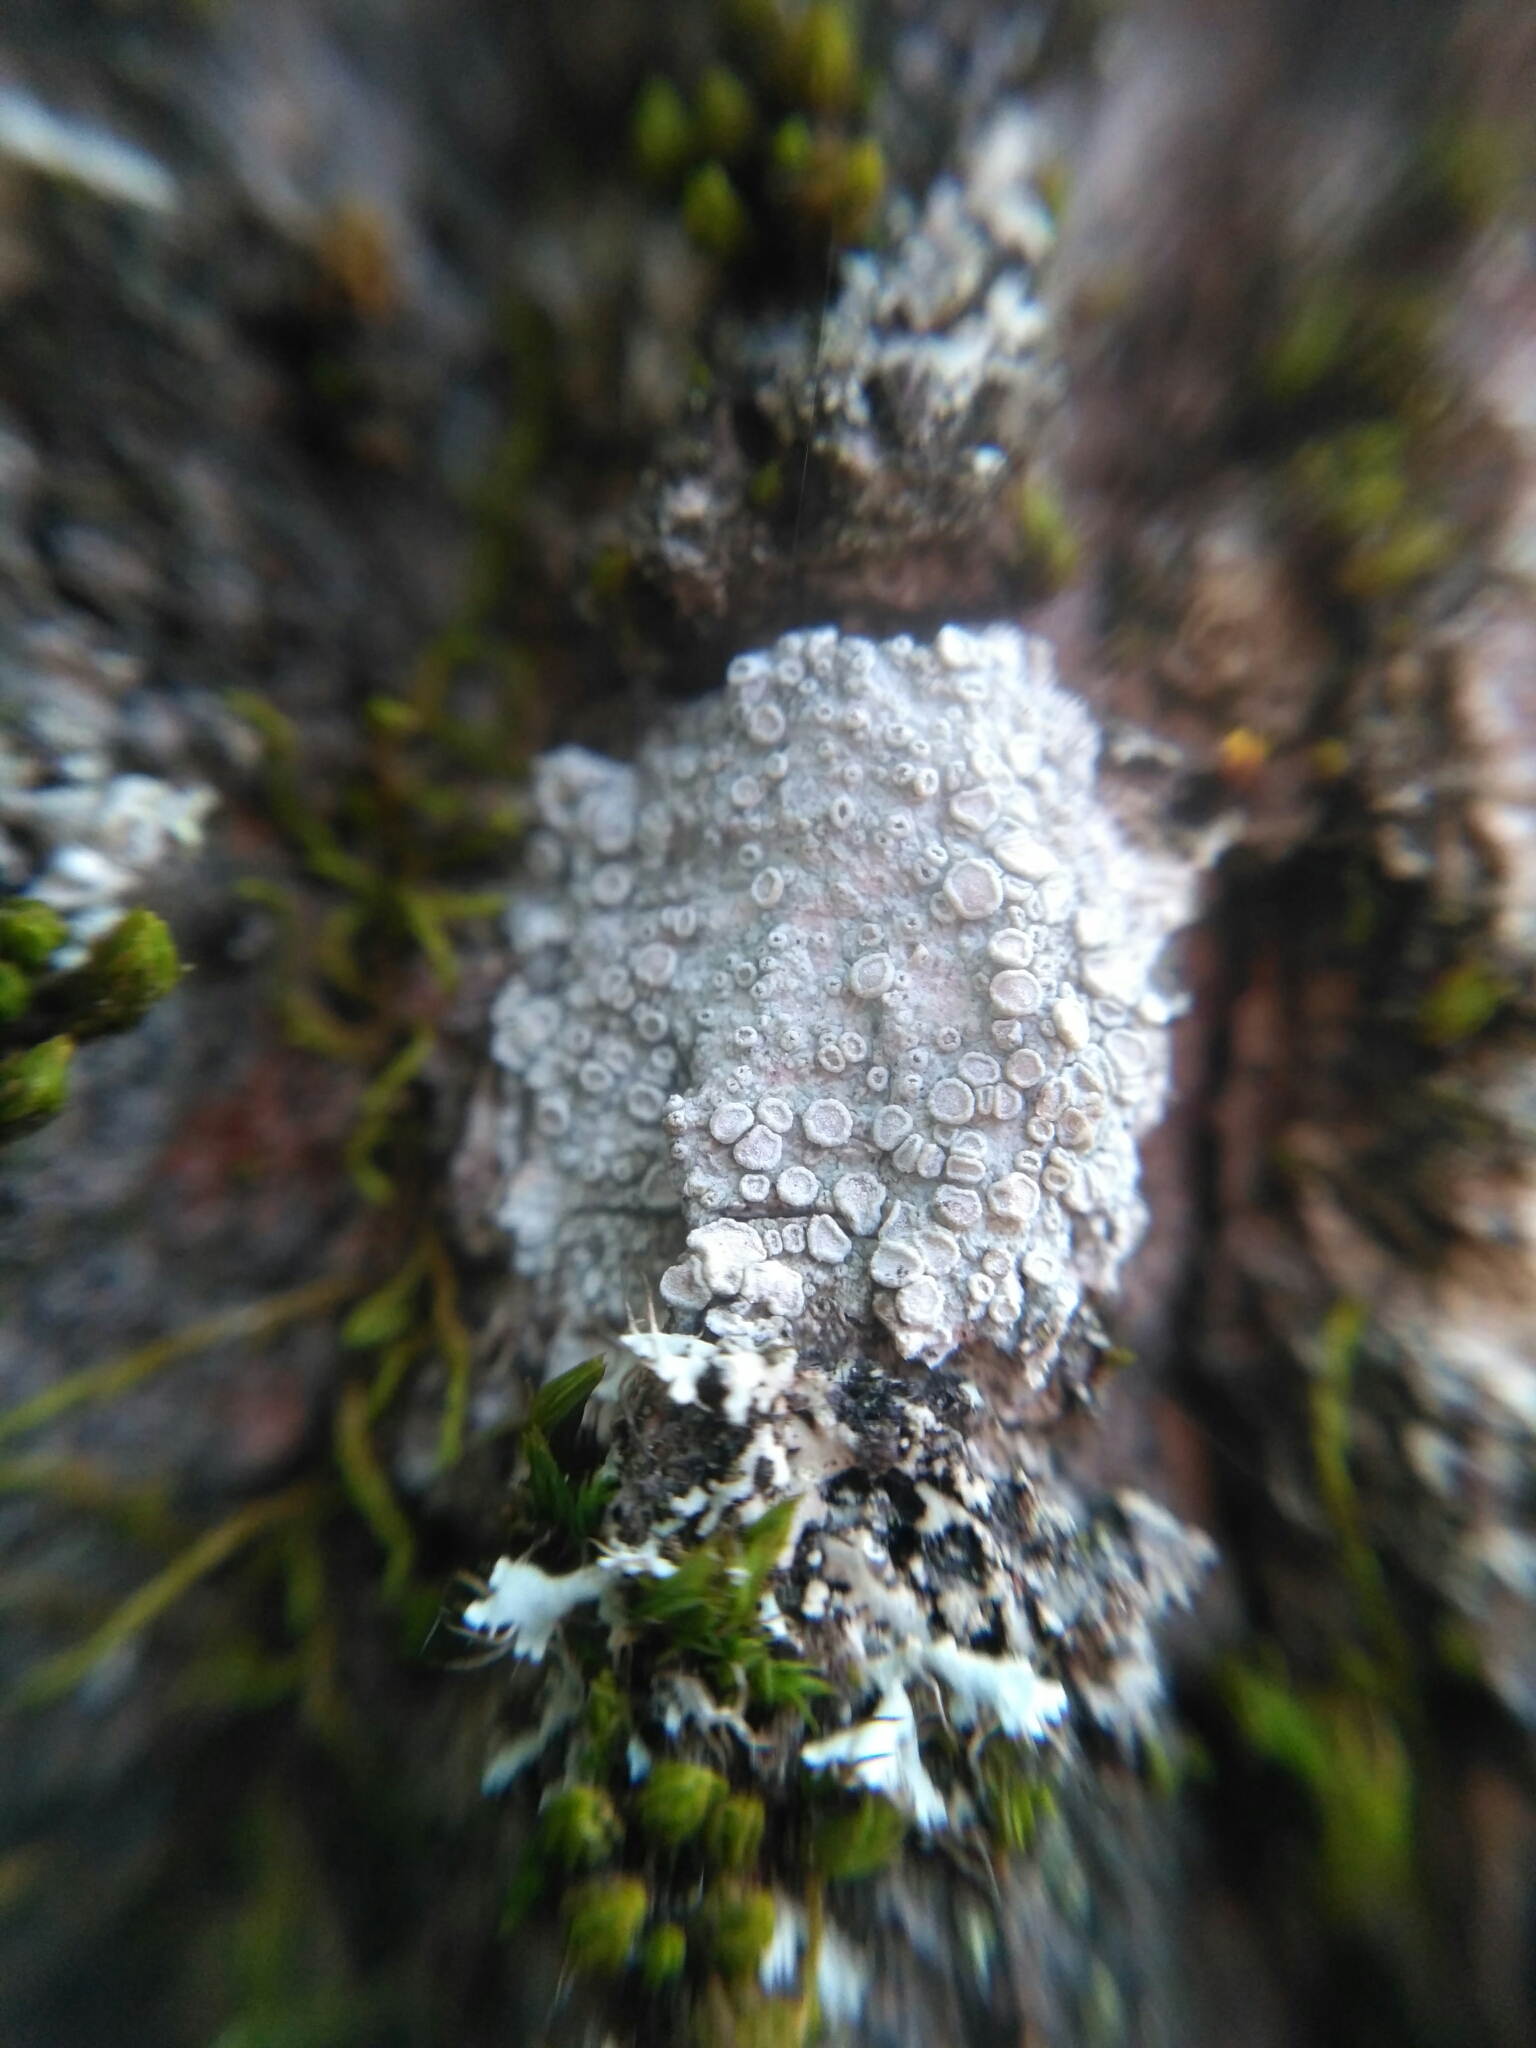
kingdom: Fungi
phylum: Ascomycota
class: Lecanoromycetes
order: Lecanorales
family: Lecanoraceae
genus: Glaucomaria
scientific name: Glaucomaria carpinea
